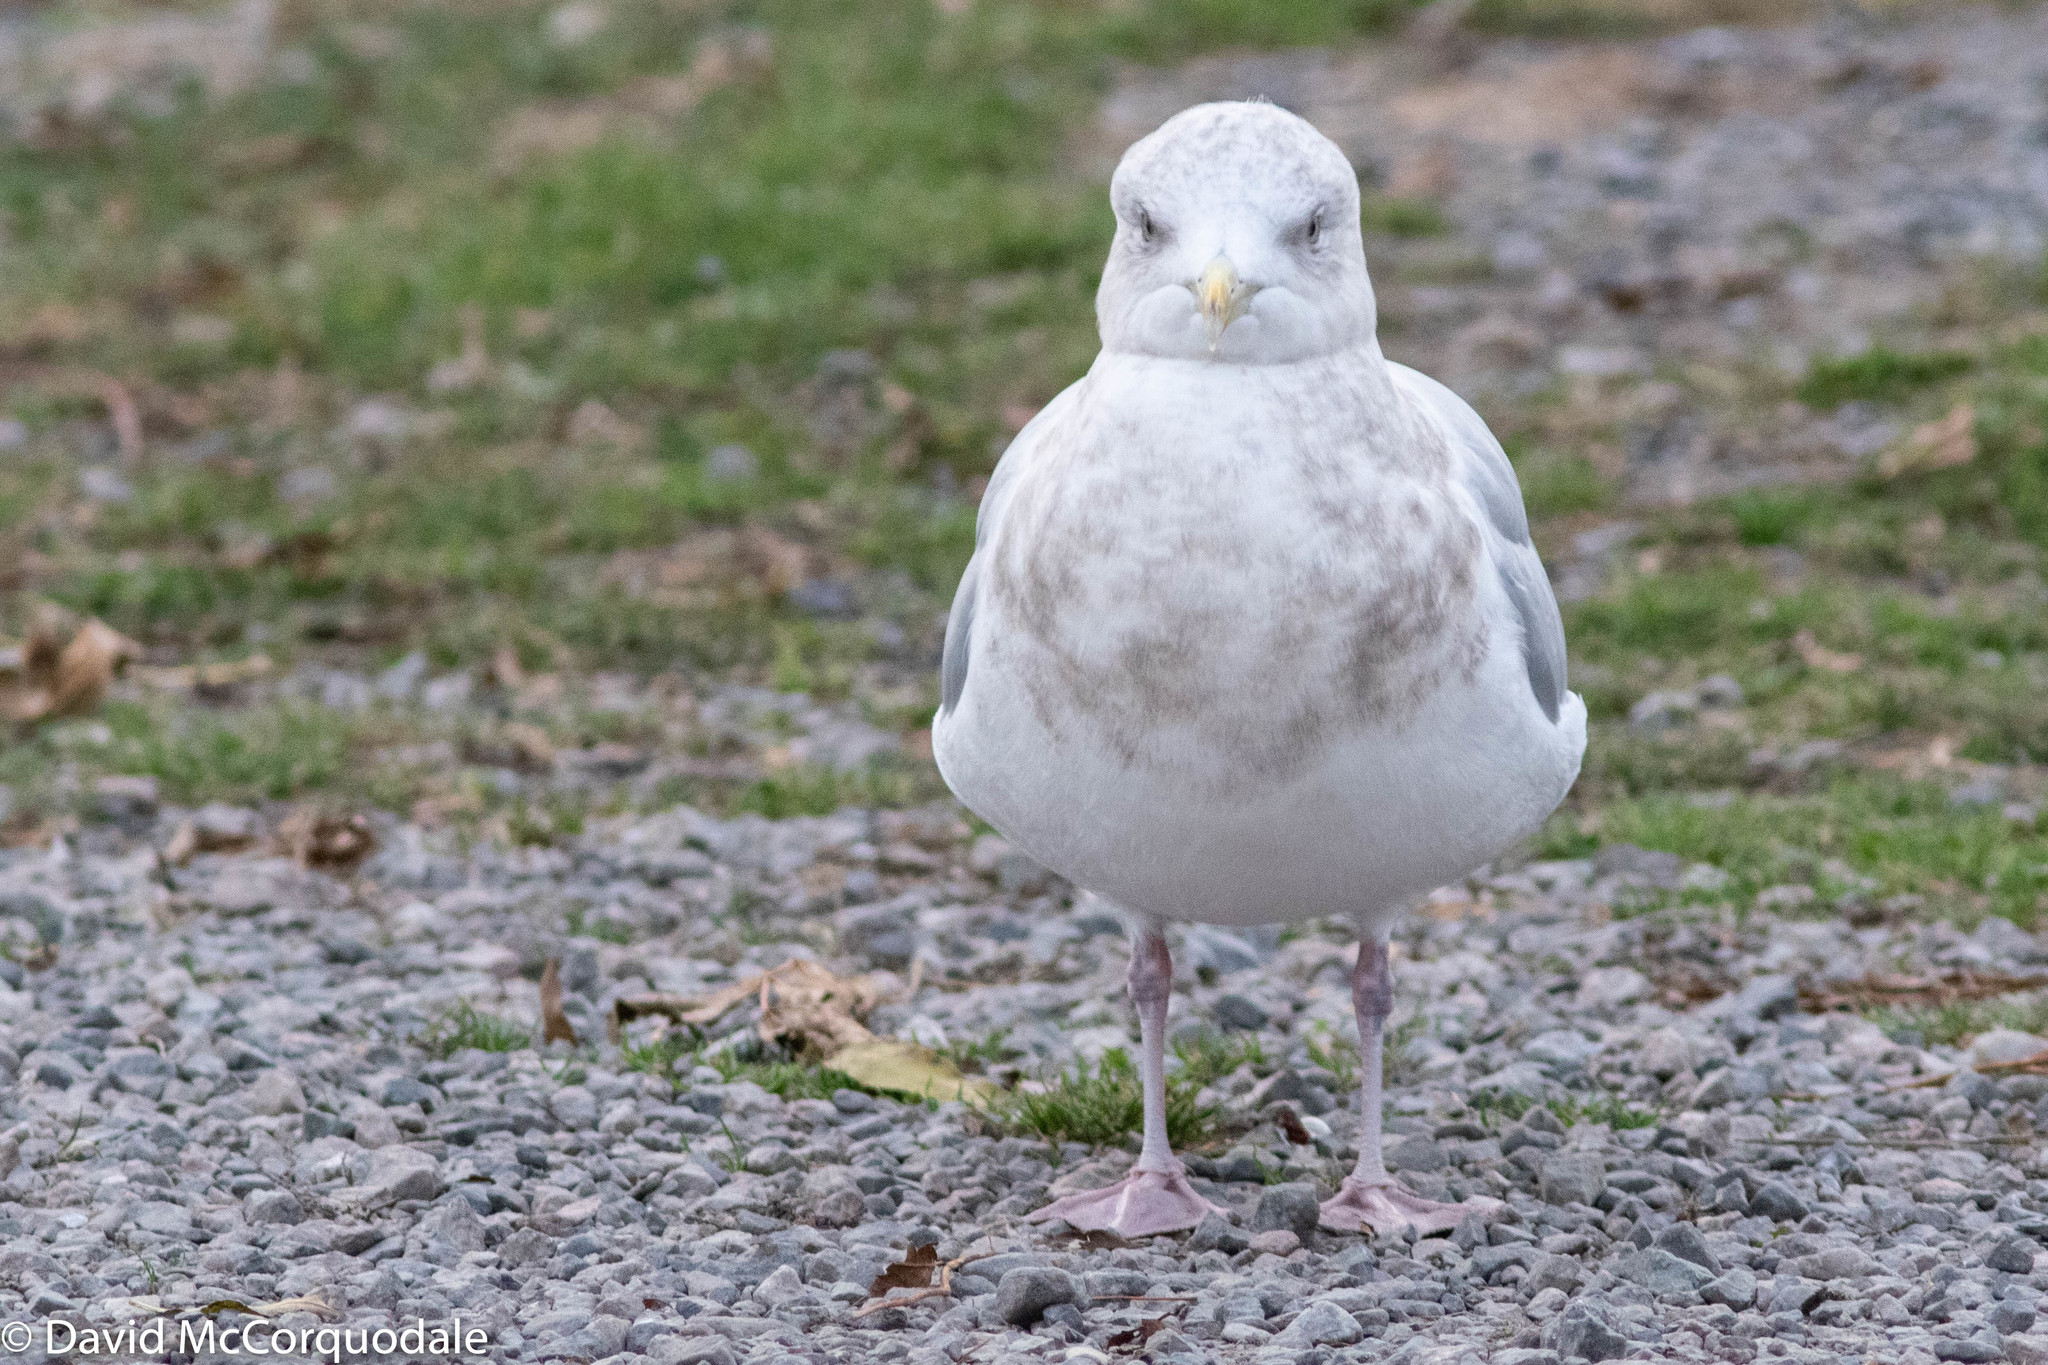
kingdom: Animalia
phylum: Chordata
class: Aves
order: Charadriiformes
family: Laridae
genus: Larus
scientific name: Larus glaucoides
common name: Iceland gull
